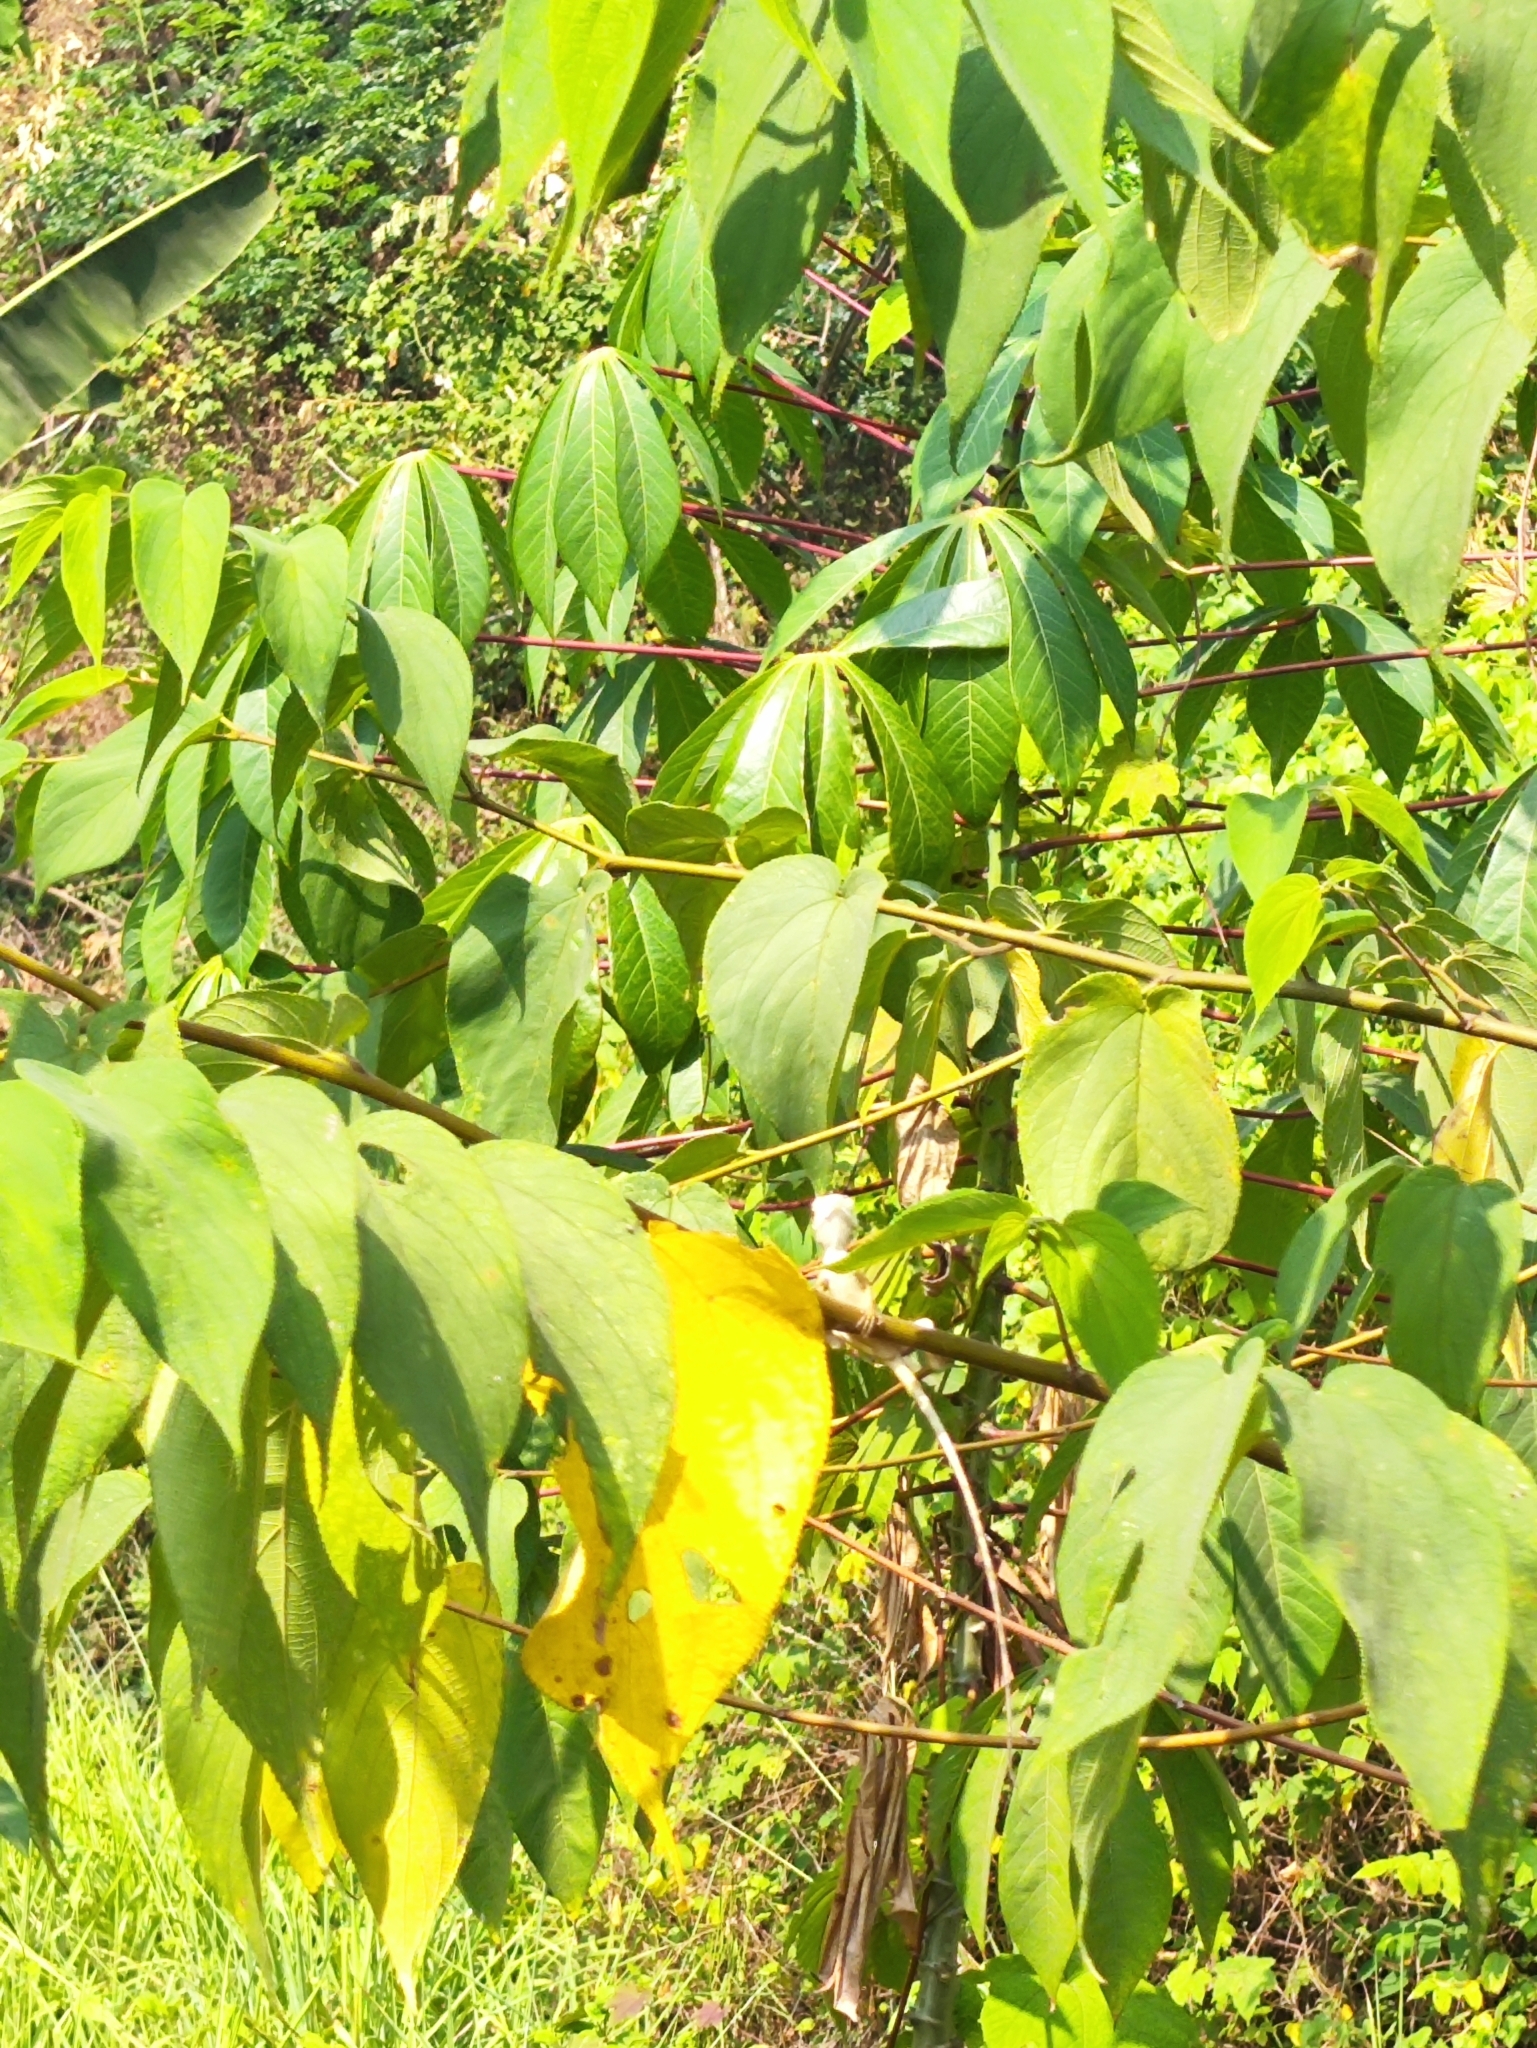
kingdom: Animalia
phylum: Chordata
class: Squamata
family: Agamidae
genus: Calotes
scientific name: Calotes versicolor
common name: Oriental garden lizard
